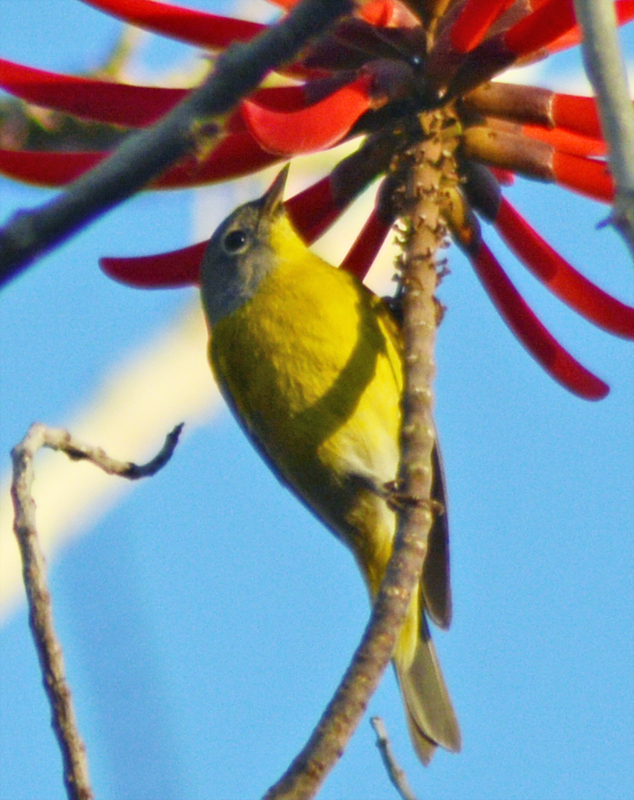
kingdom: Animalia
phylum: Chordata
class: Aves
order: Passeriformes
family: Parulidae
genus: Leiothlypis
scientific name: Leiothlypis ruficapilla
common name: Nashville warbler
